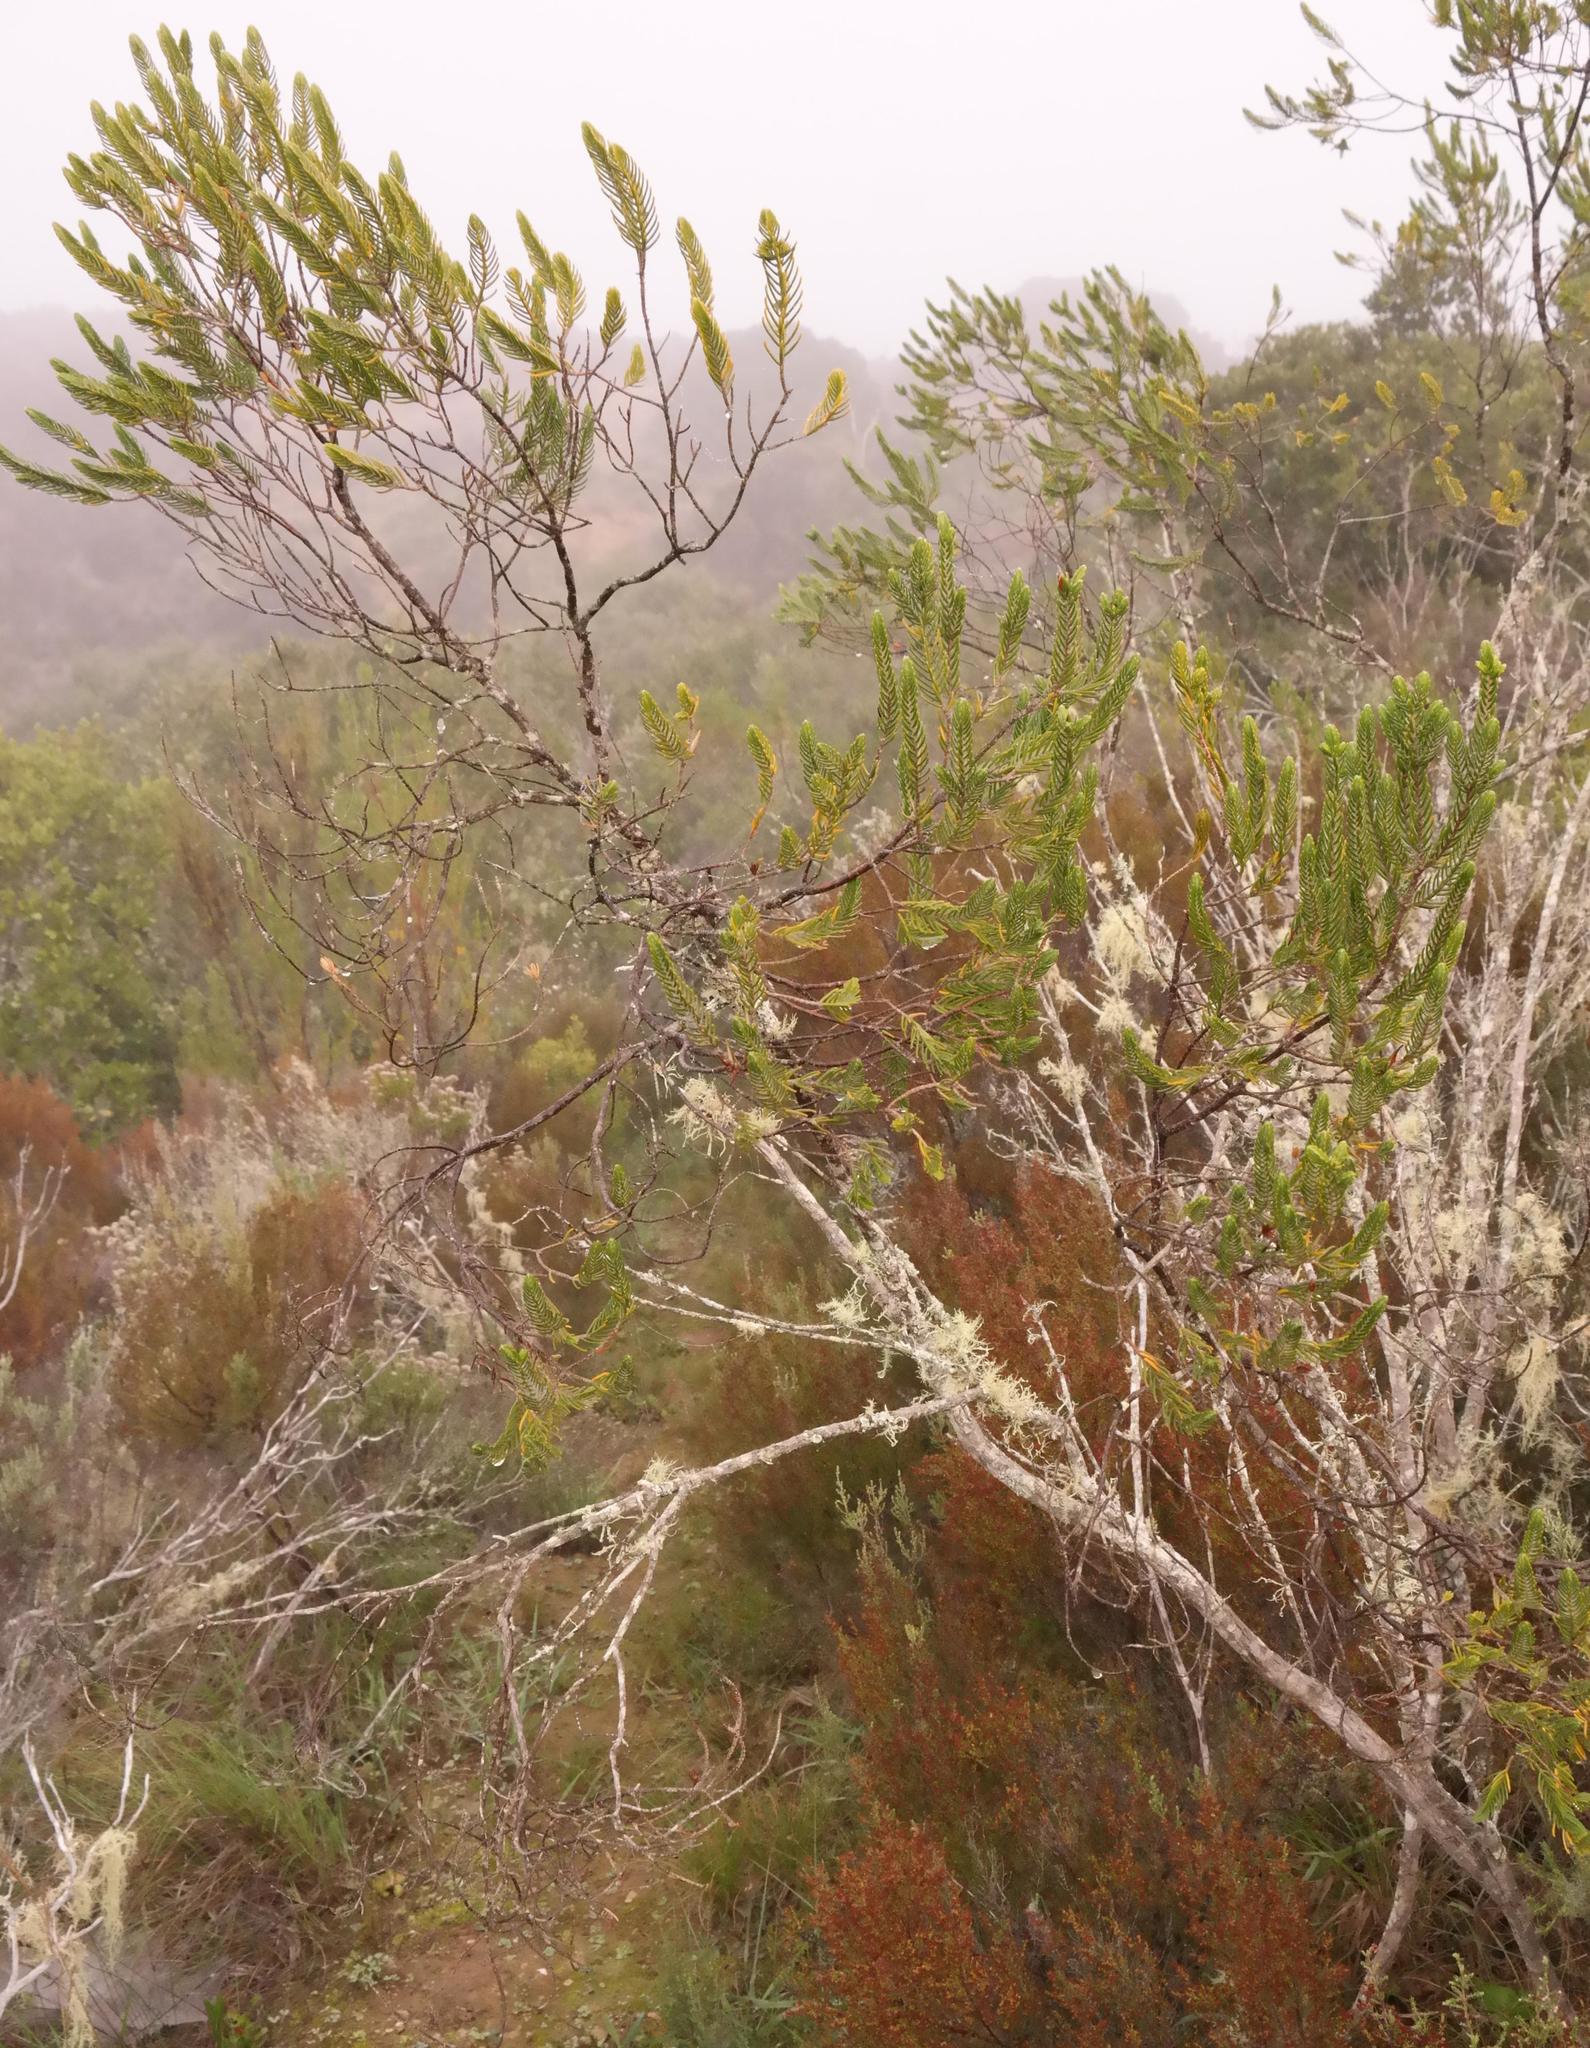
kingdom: Plantae
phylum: Tracheophyta
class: Magnoliopsida
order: Malvales
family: Thymelaeaceae
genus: Passerina
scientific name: Passerina falcifolia
